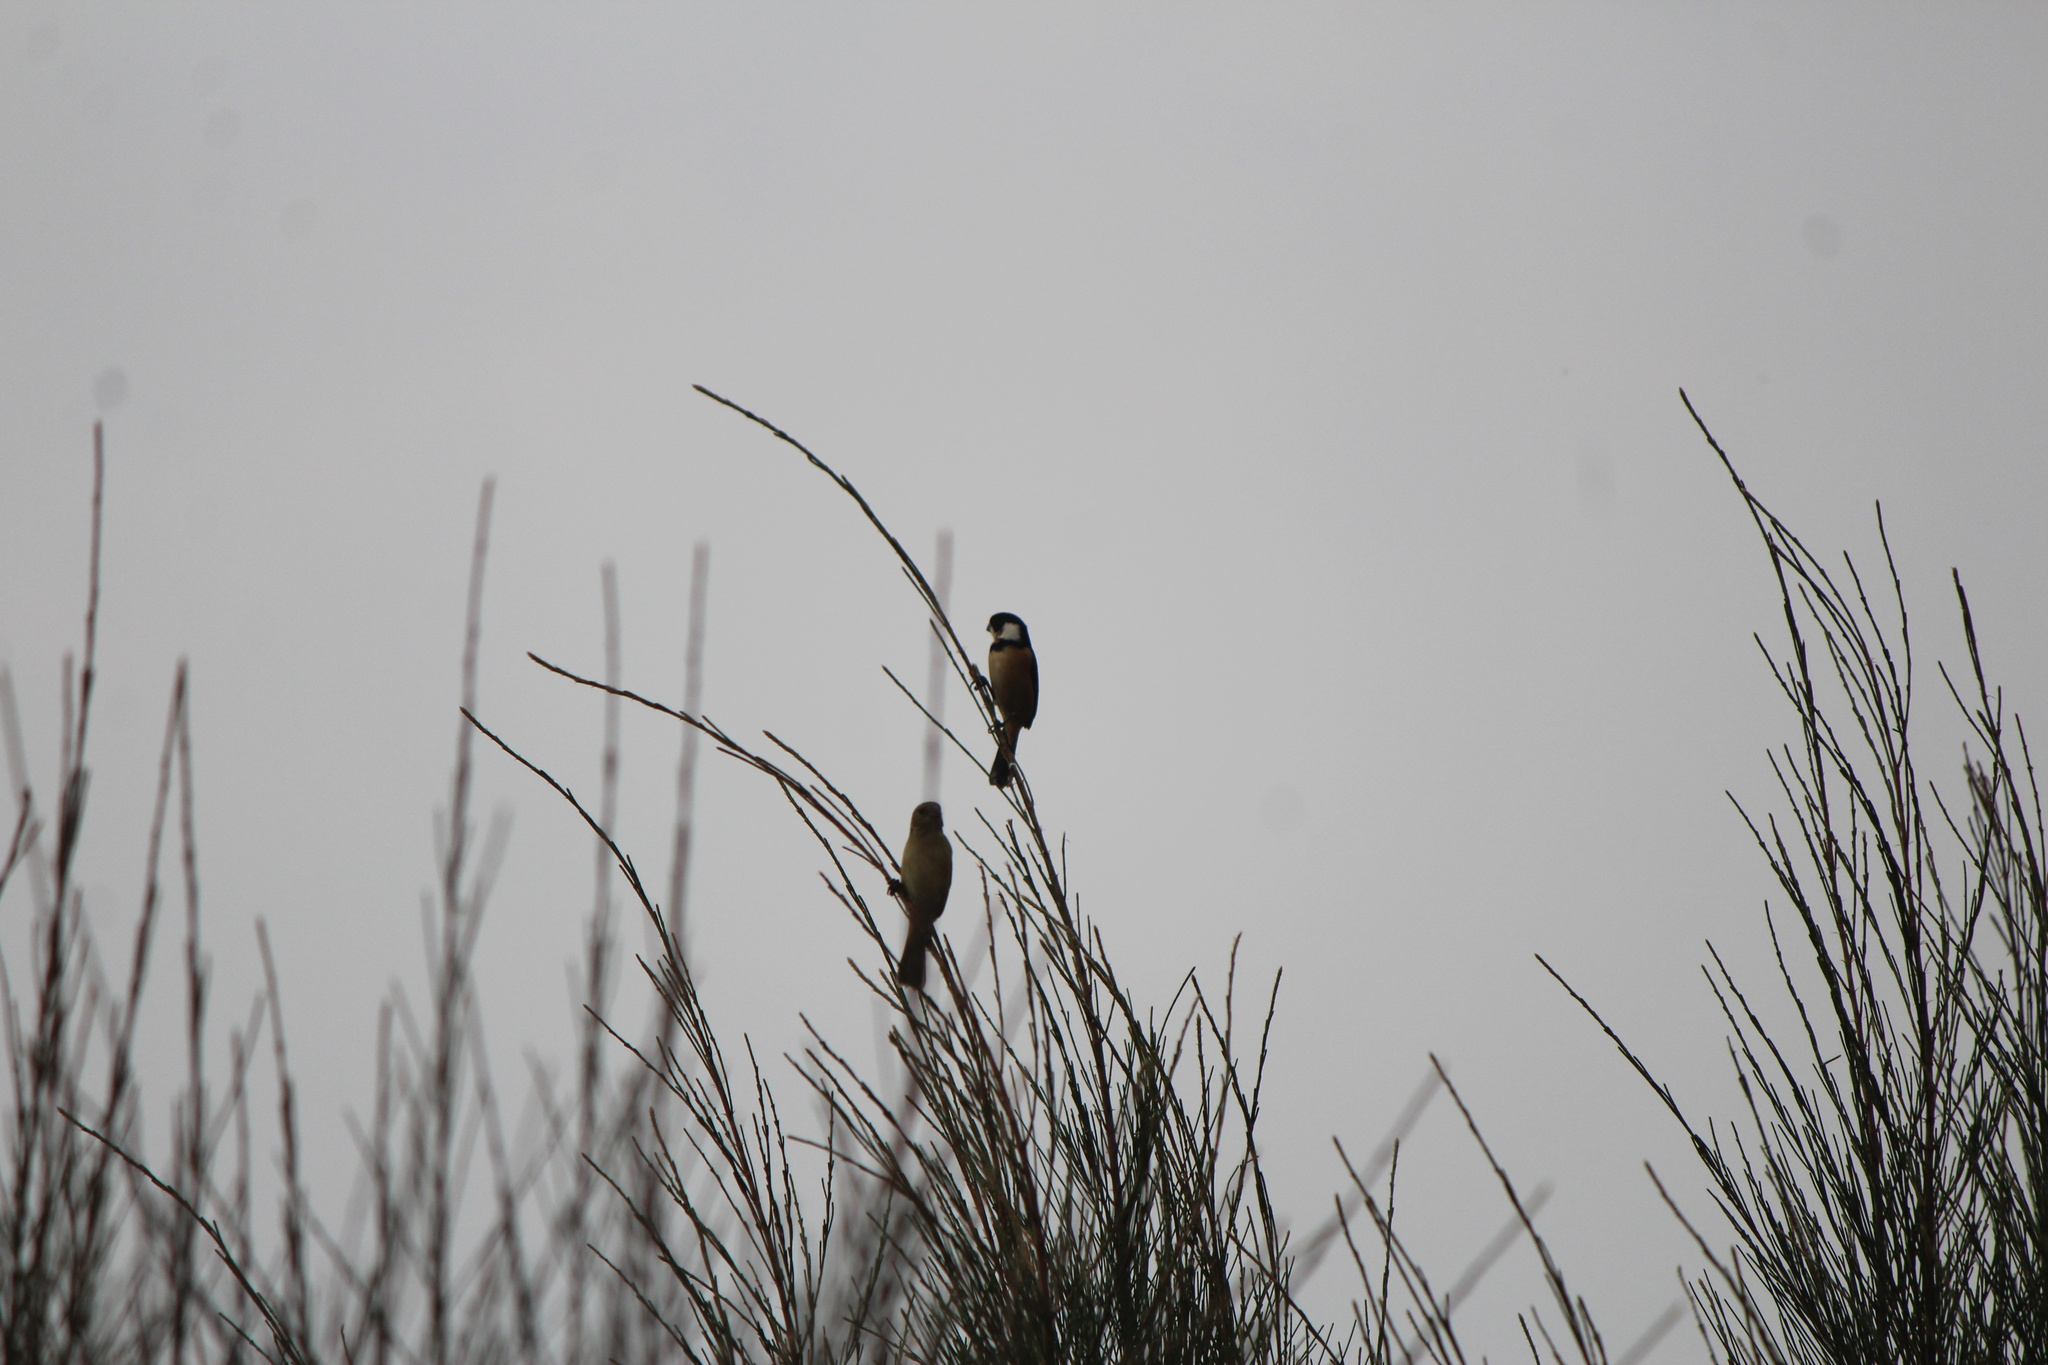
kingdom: Animalia
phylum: Chordata
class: Aves
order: Passeriformes
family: Thraupidae
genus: Sporophila
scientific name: Sporophila torqueola
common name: White-collared seedeater
